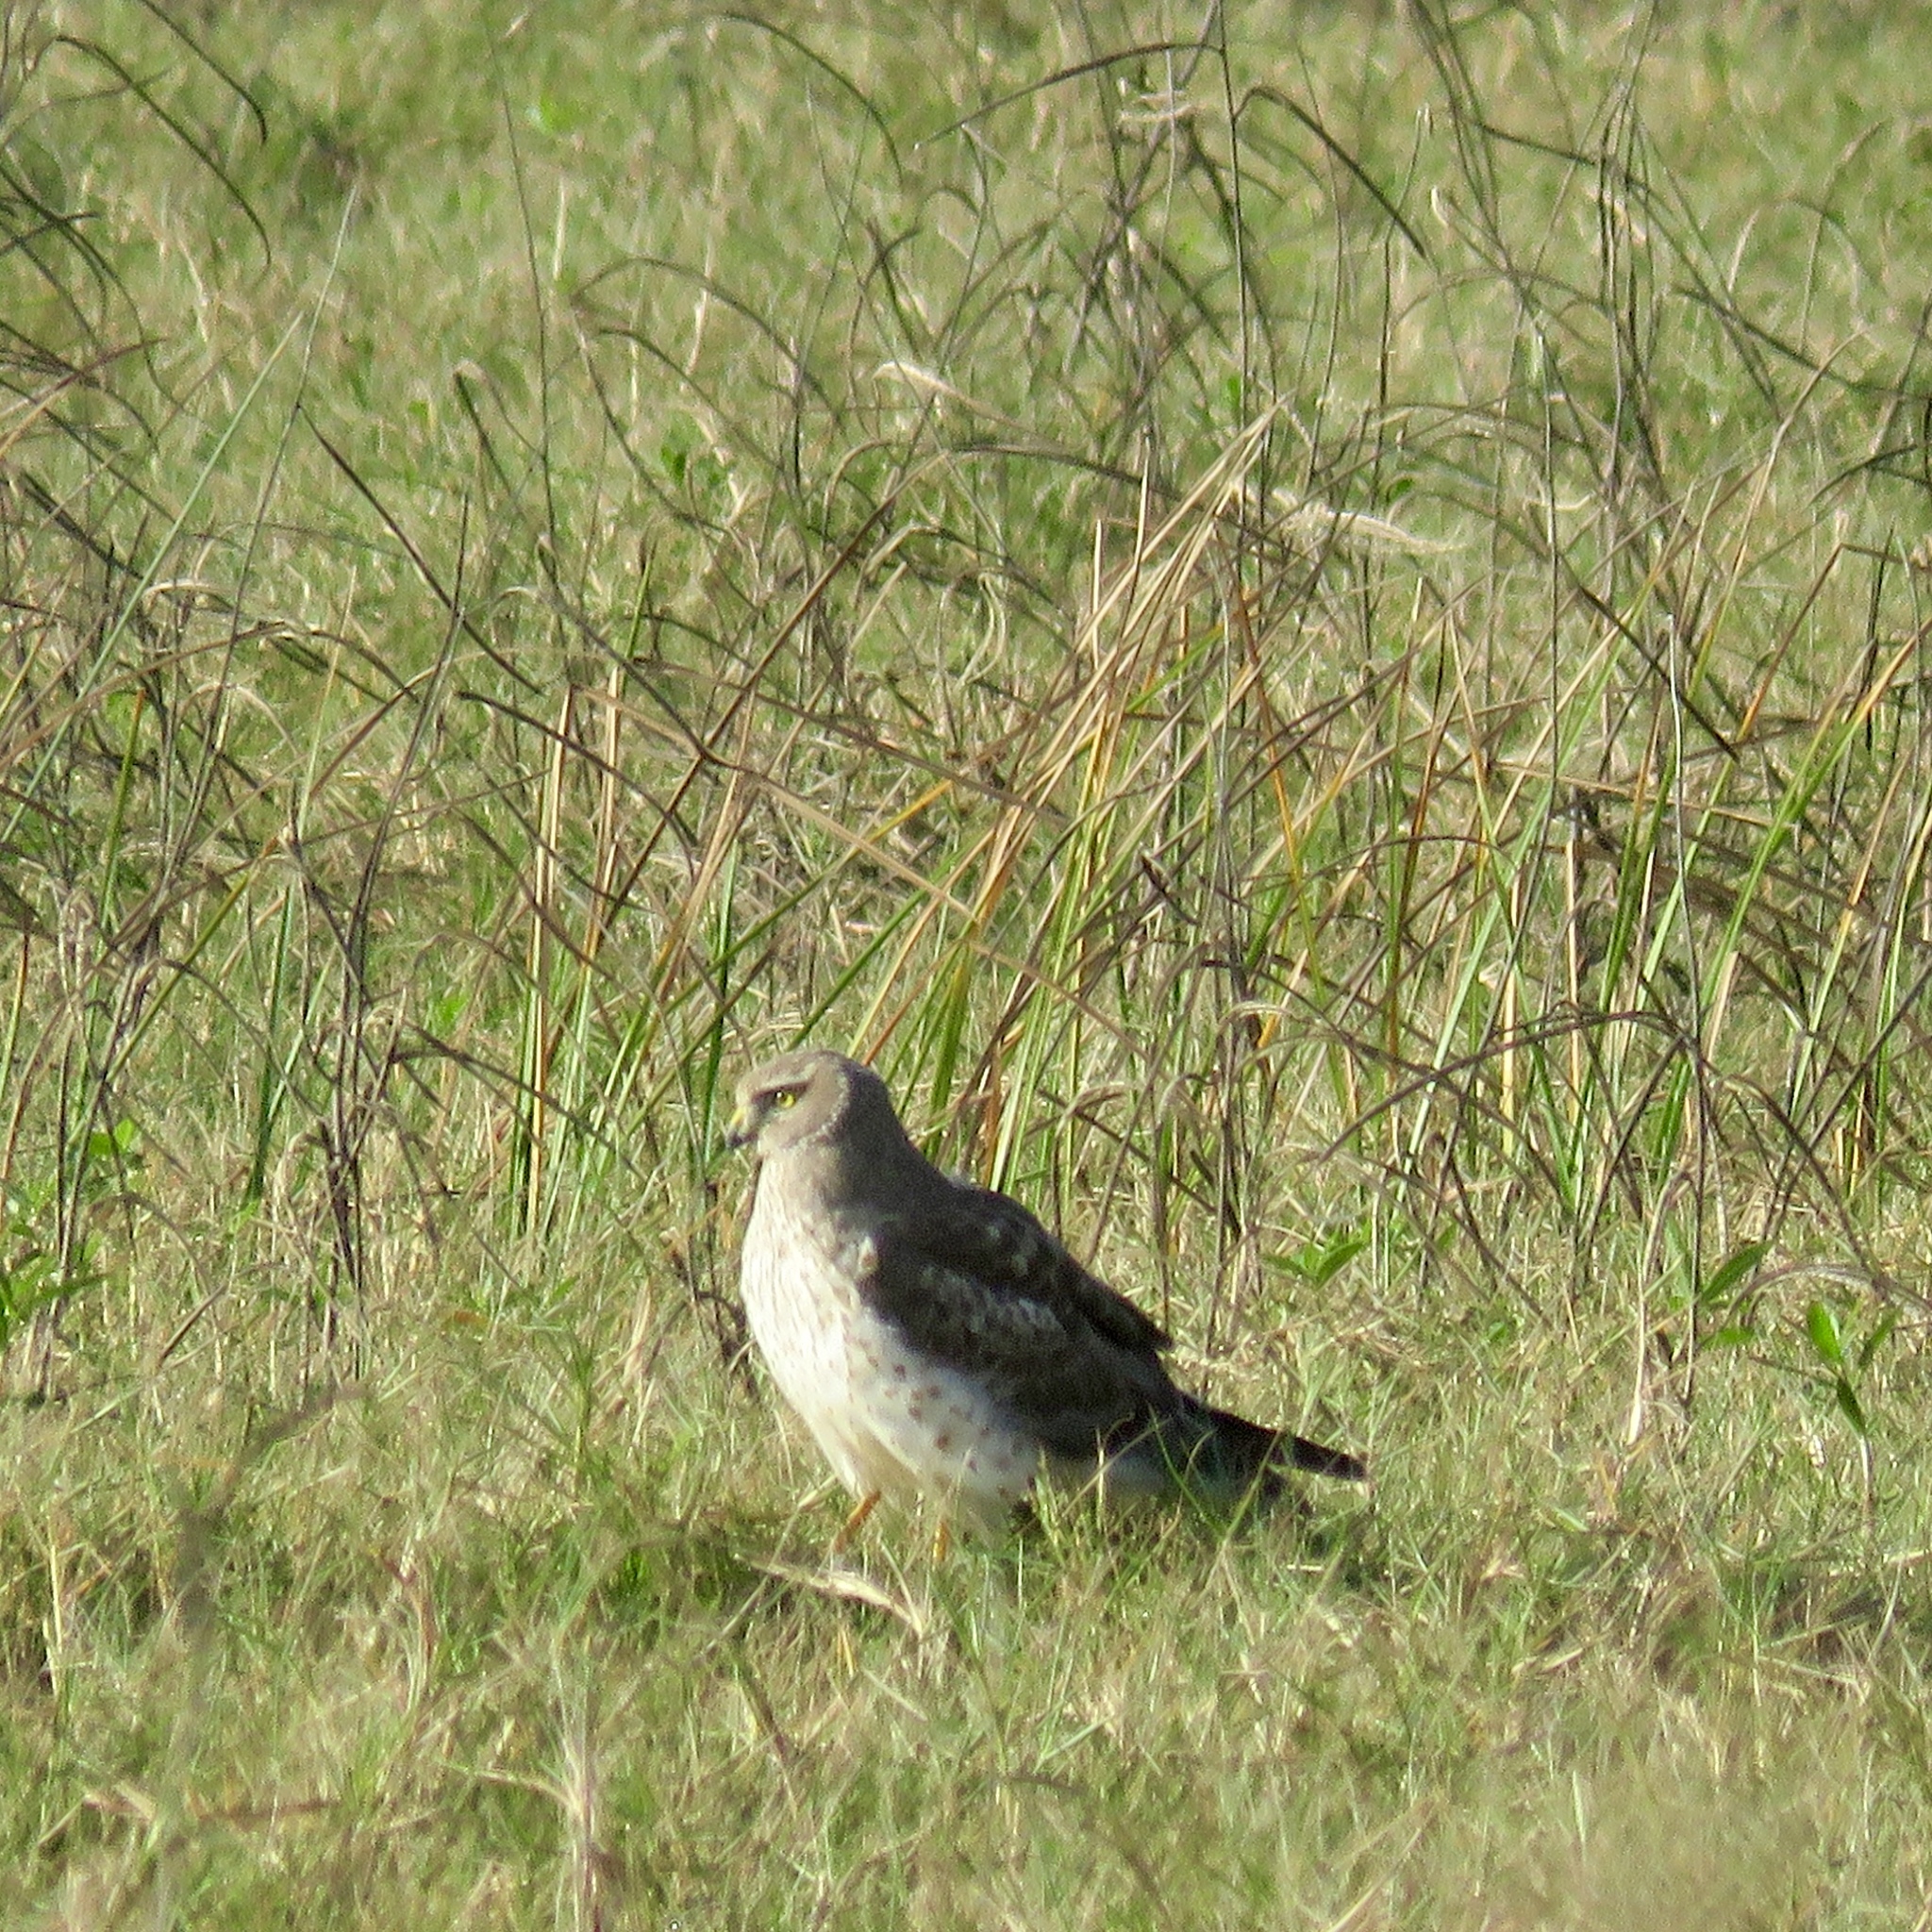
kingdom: Animalia
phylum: Chordata
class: Aves
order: Accipitriformes
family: Accipitridae
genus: Circus
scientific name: Circus cyaneus
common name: Hen harrier
